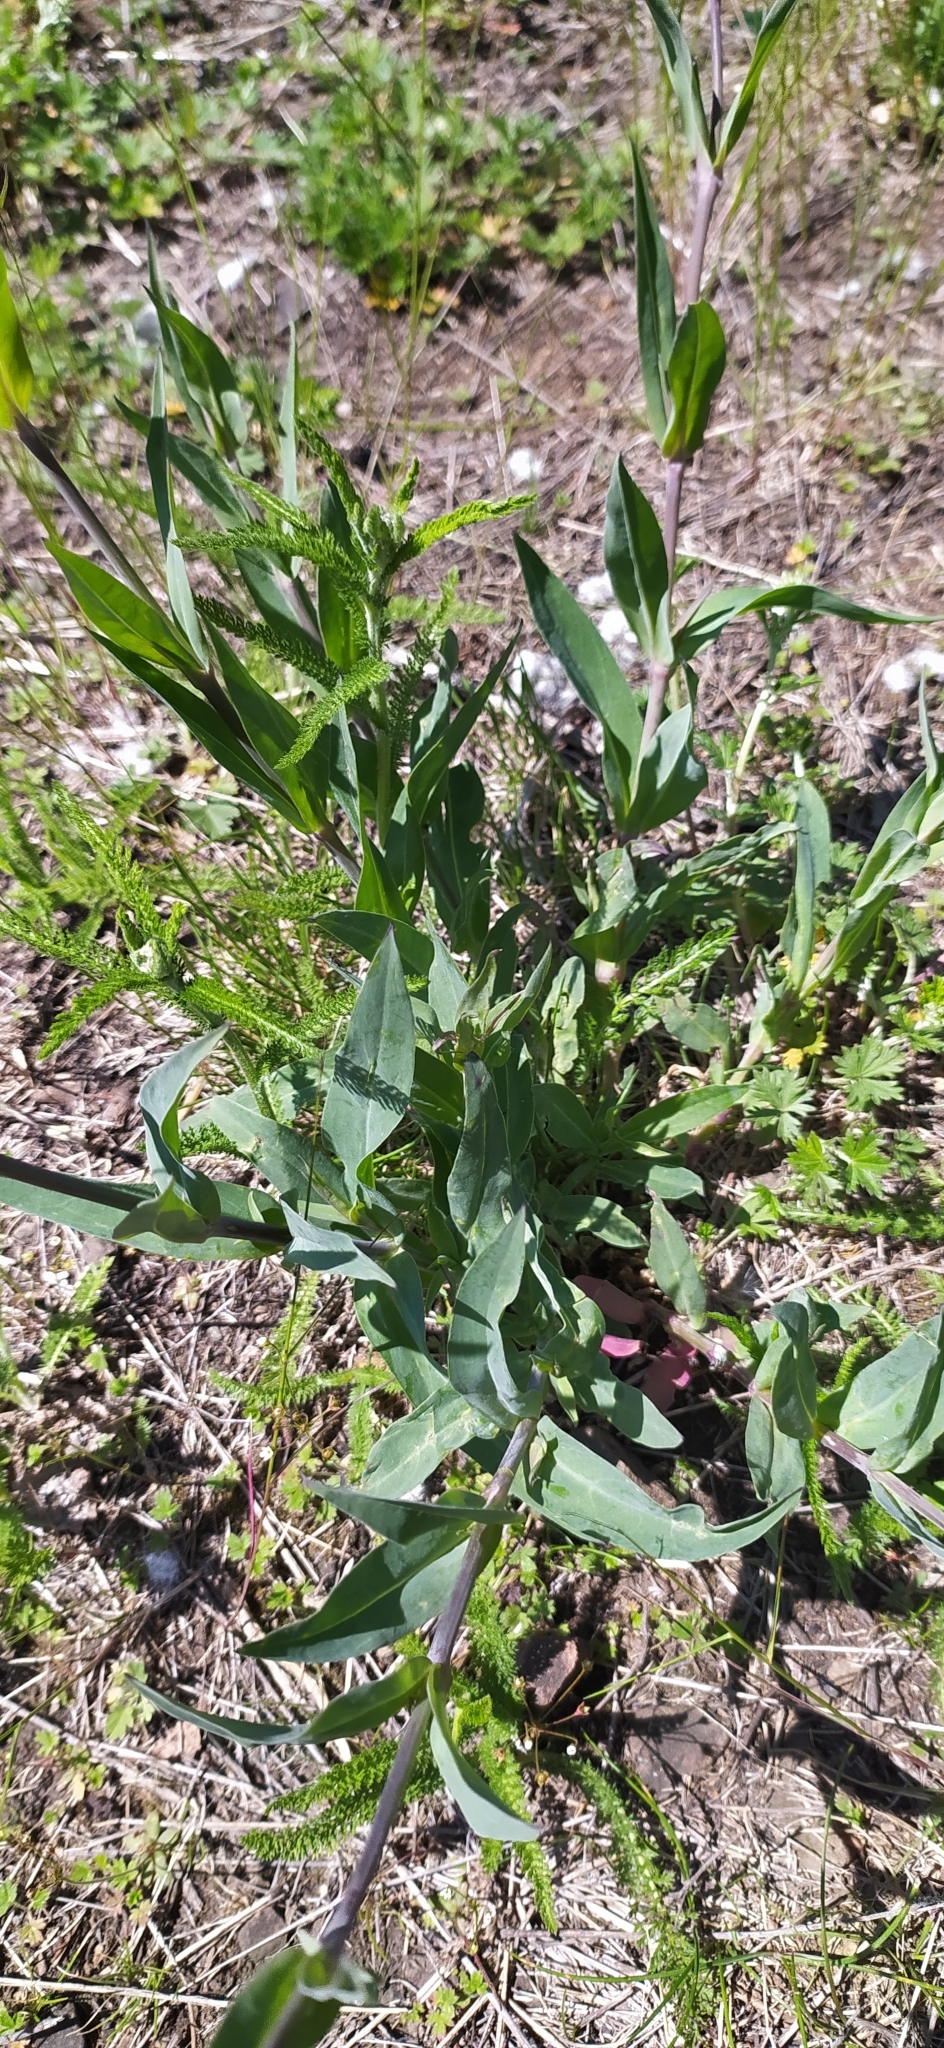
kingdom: Plantae
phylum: Tracheophyta
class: Magnoliopsida
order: Caryophyllales
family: Caryophyllaceae
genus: Silene
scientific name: Silene vulgaris
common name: Bladder campion
